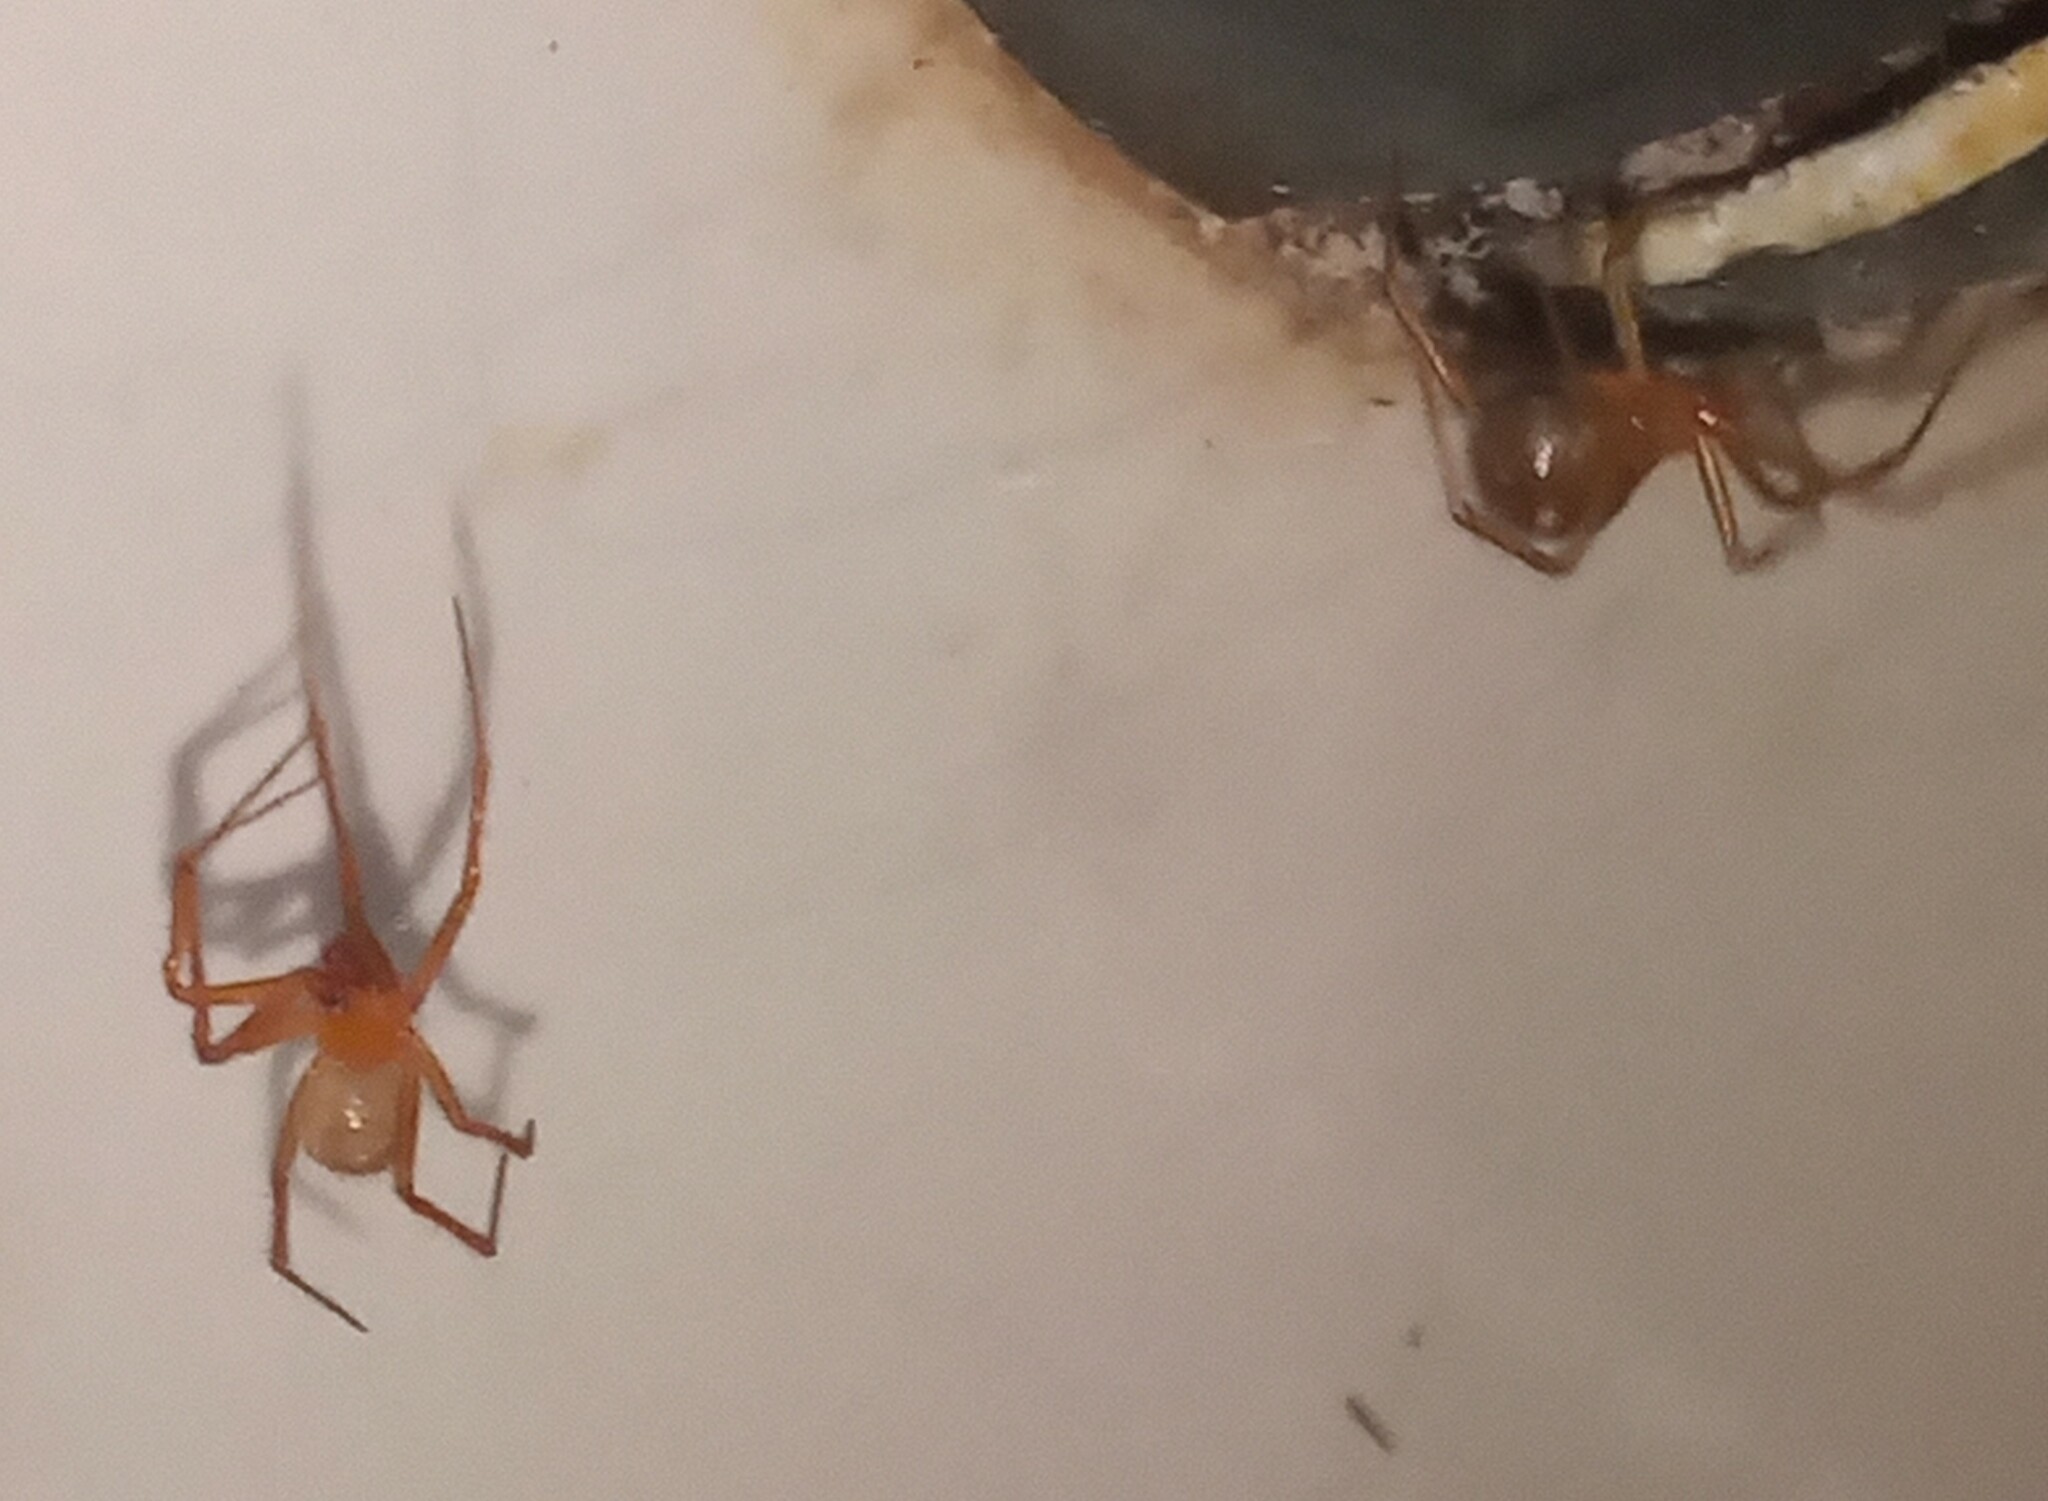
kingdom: Animalia
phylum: Arthropoda
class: Arachnida
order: Araneae
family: Theridiidae
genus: Nesticodes
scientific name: Nesticodes rufipes
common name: Cobweb spiders
